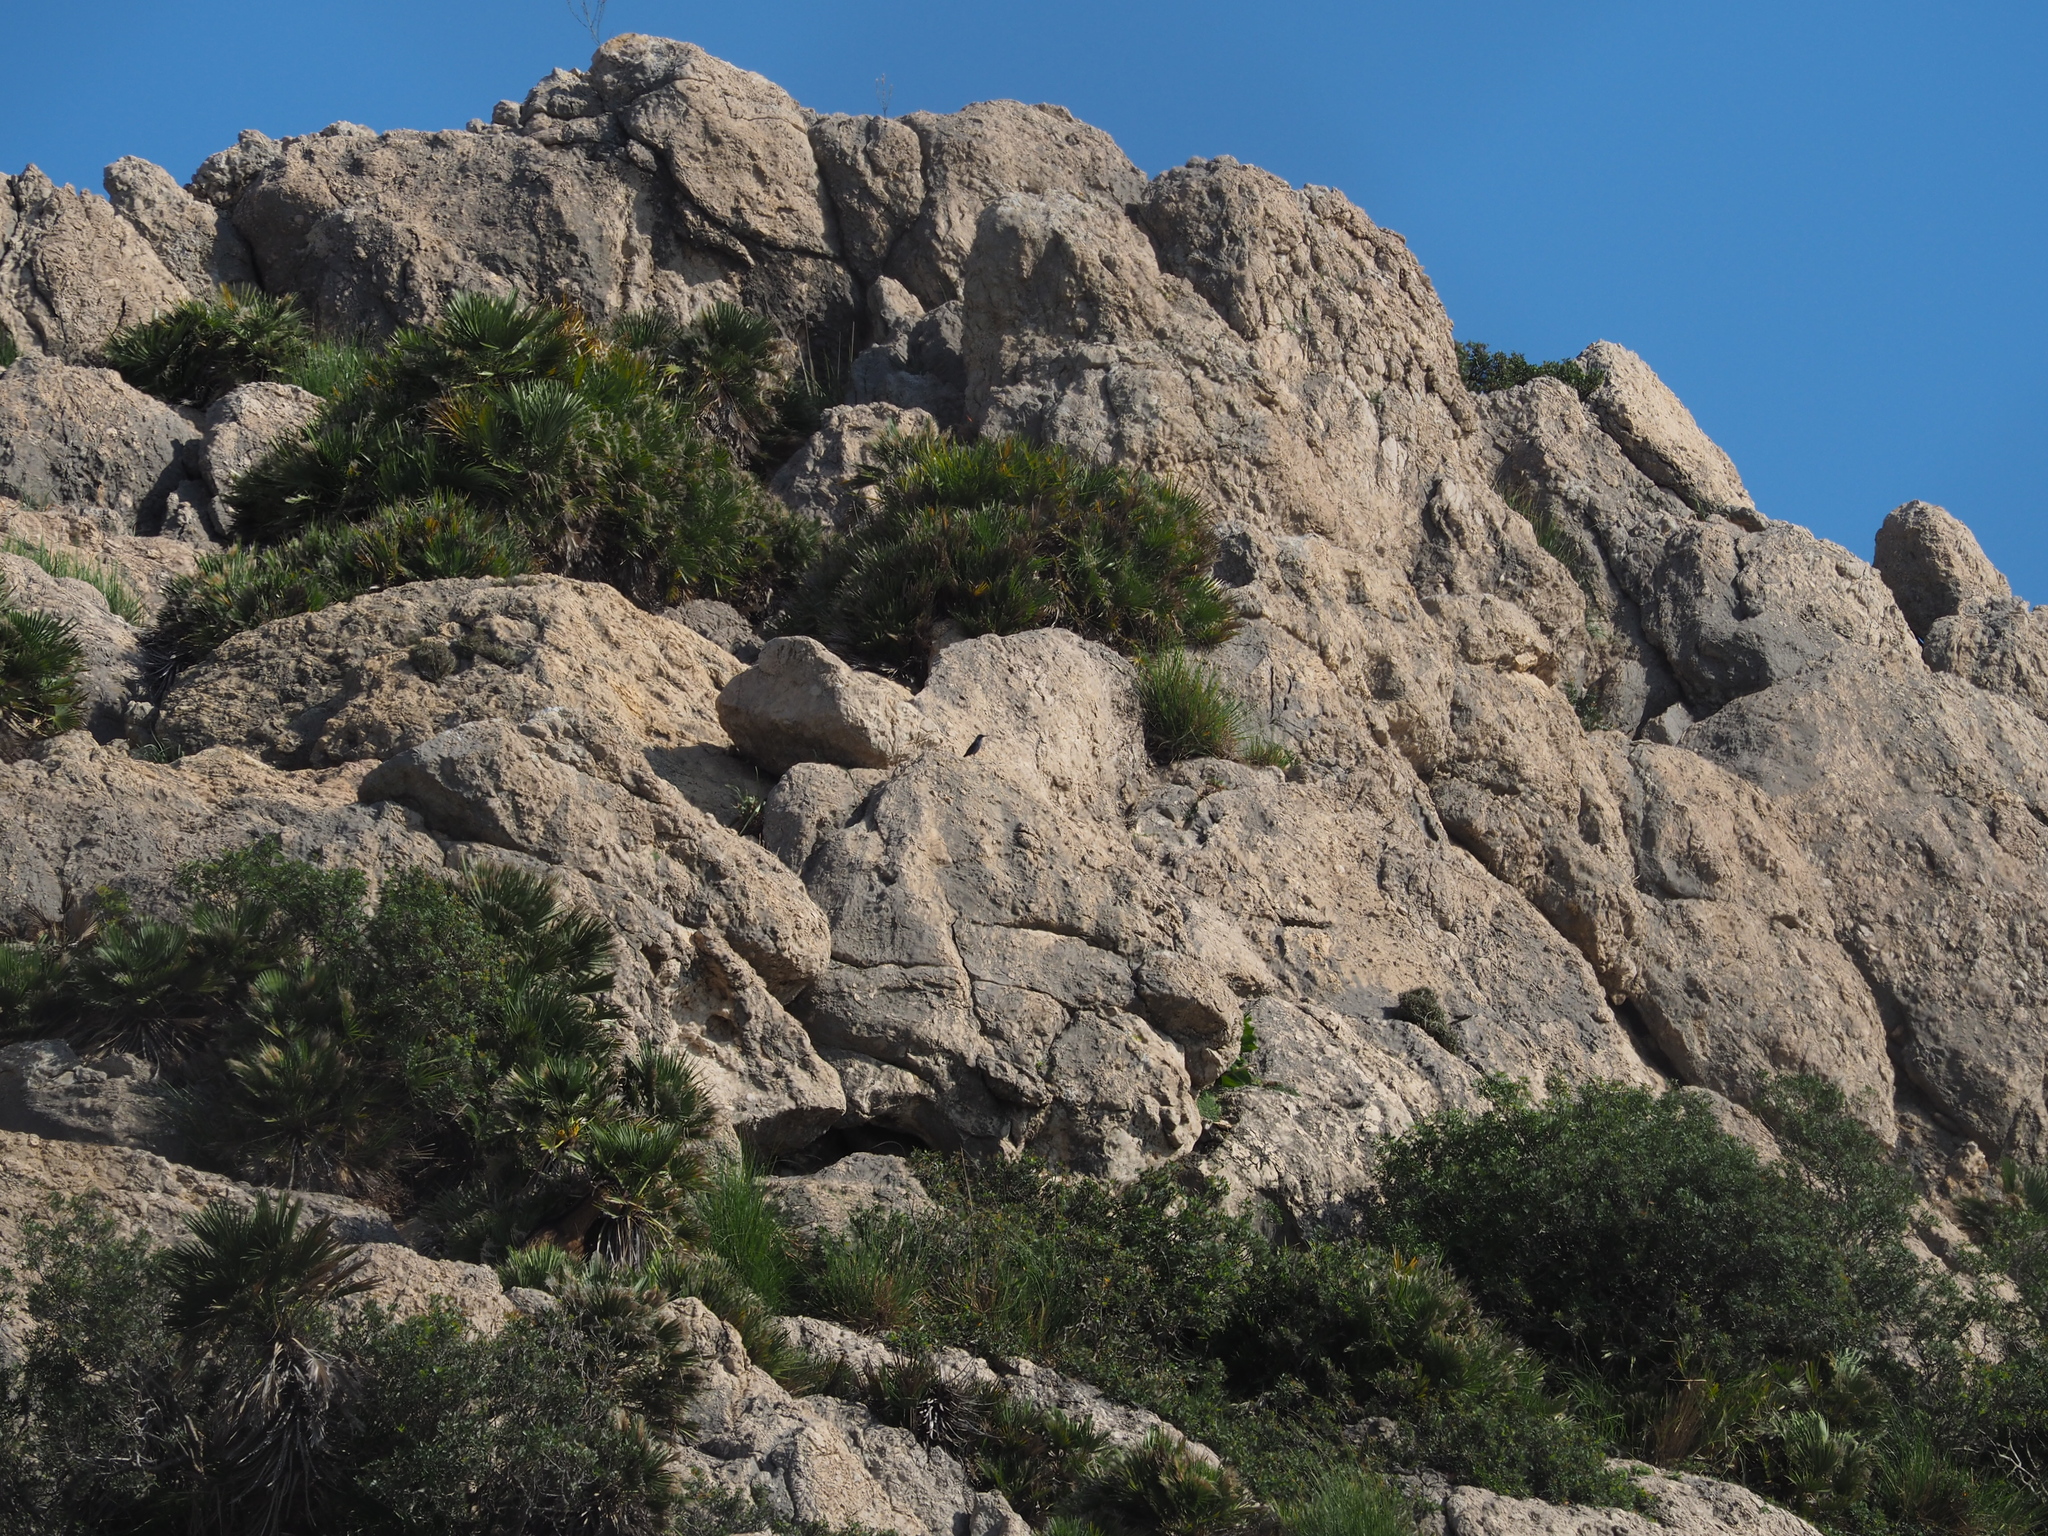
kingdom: Animalia
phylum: Chordata
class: Aves
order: Passeriformes
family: Muscicapidae
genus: Monticola
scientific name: Monticola solitarius
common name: Blue rock thrush
